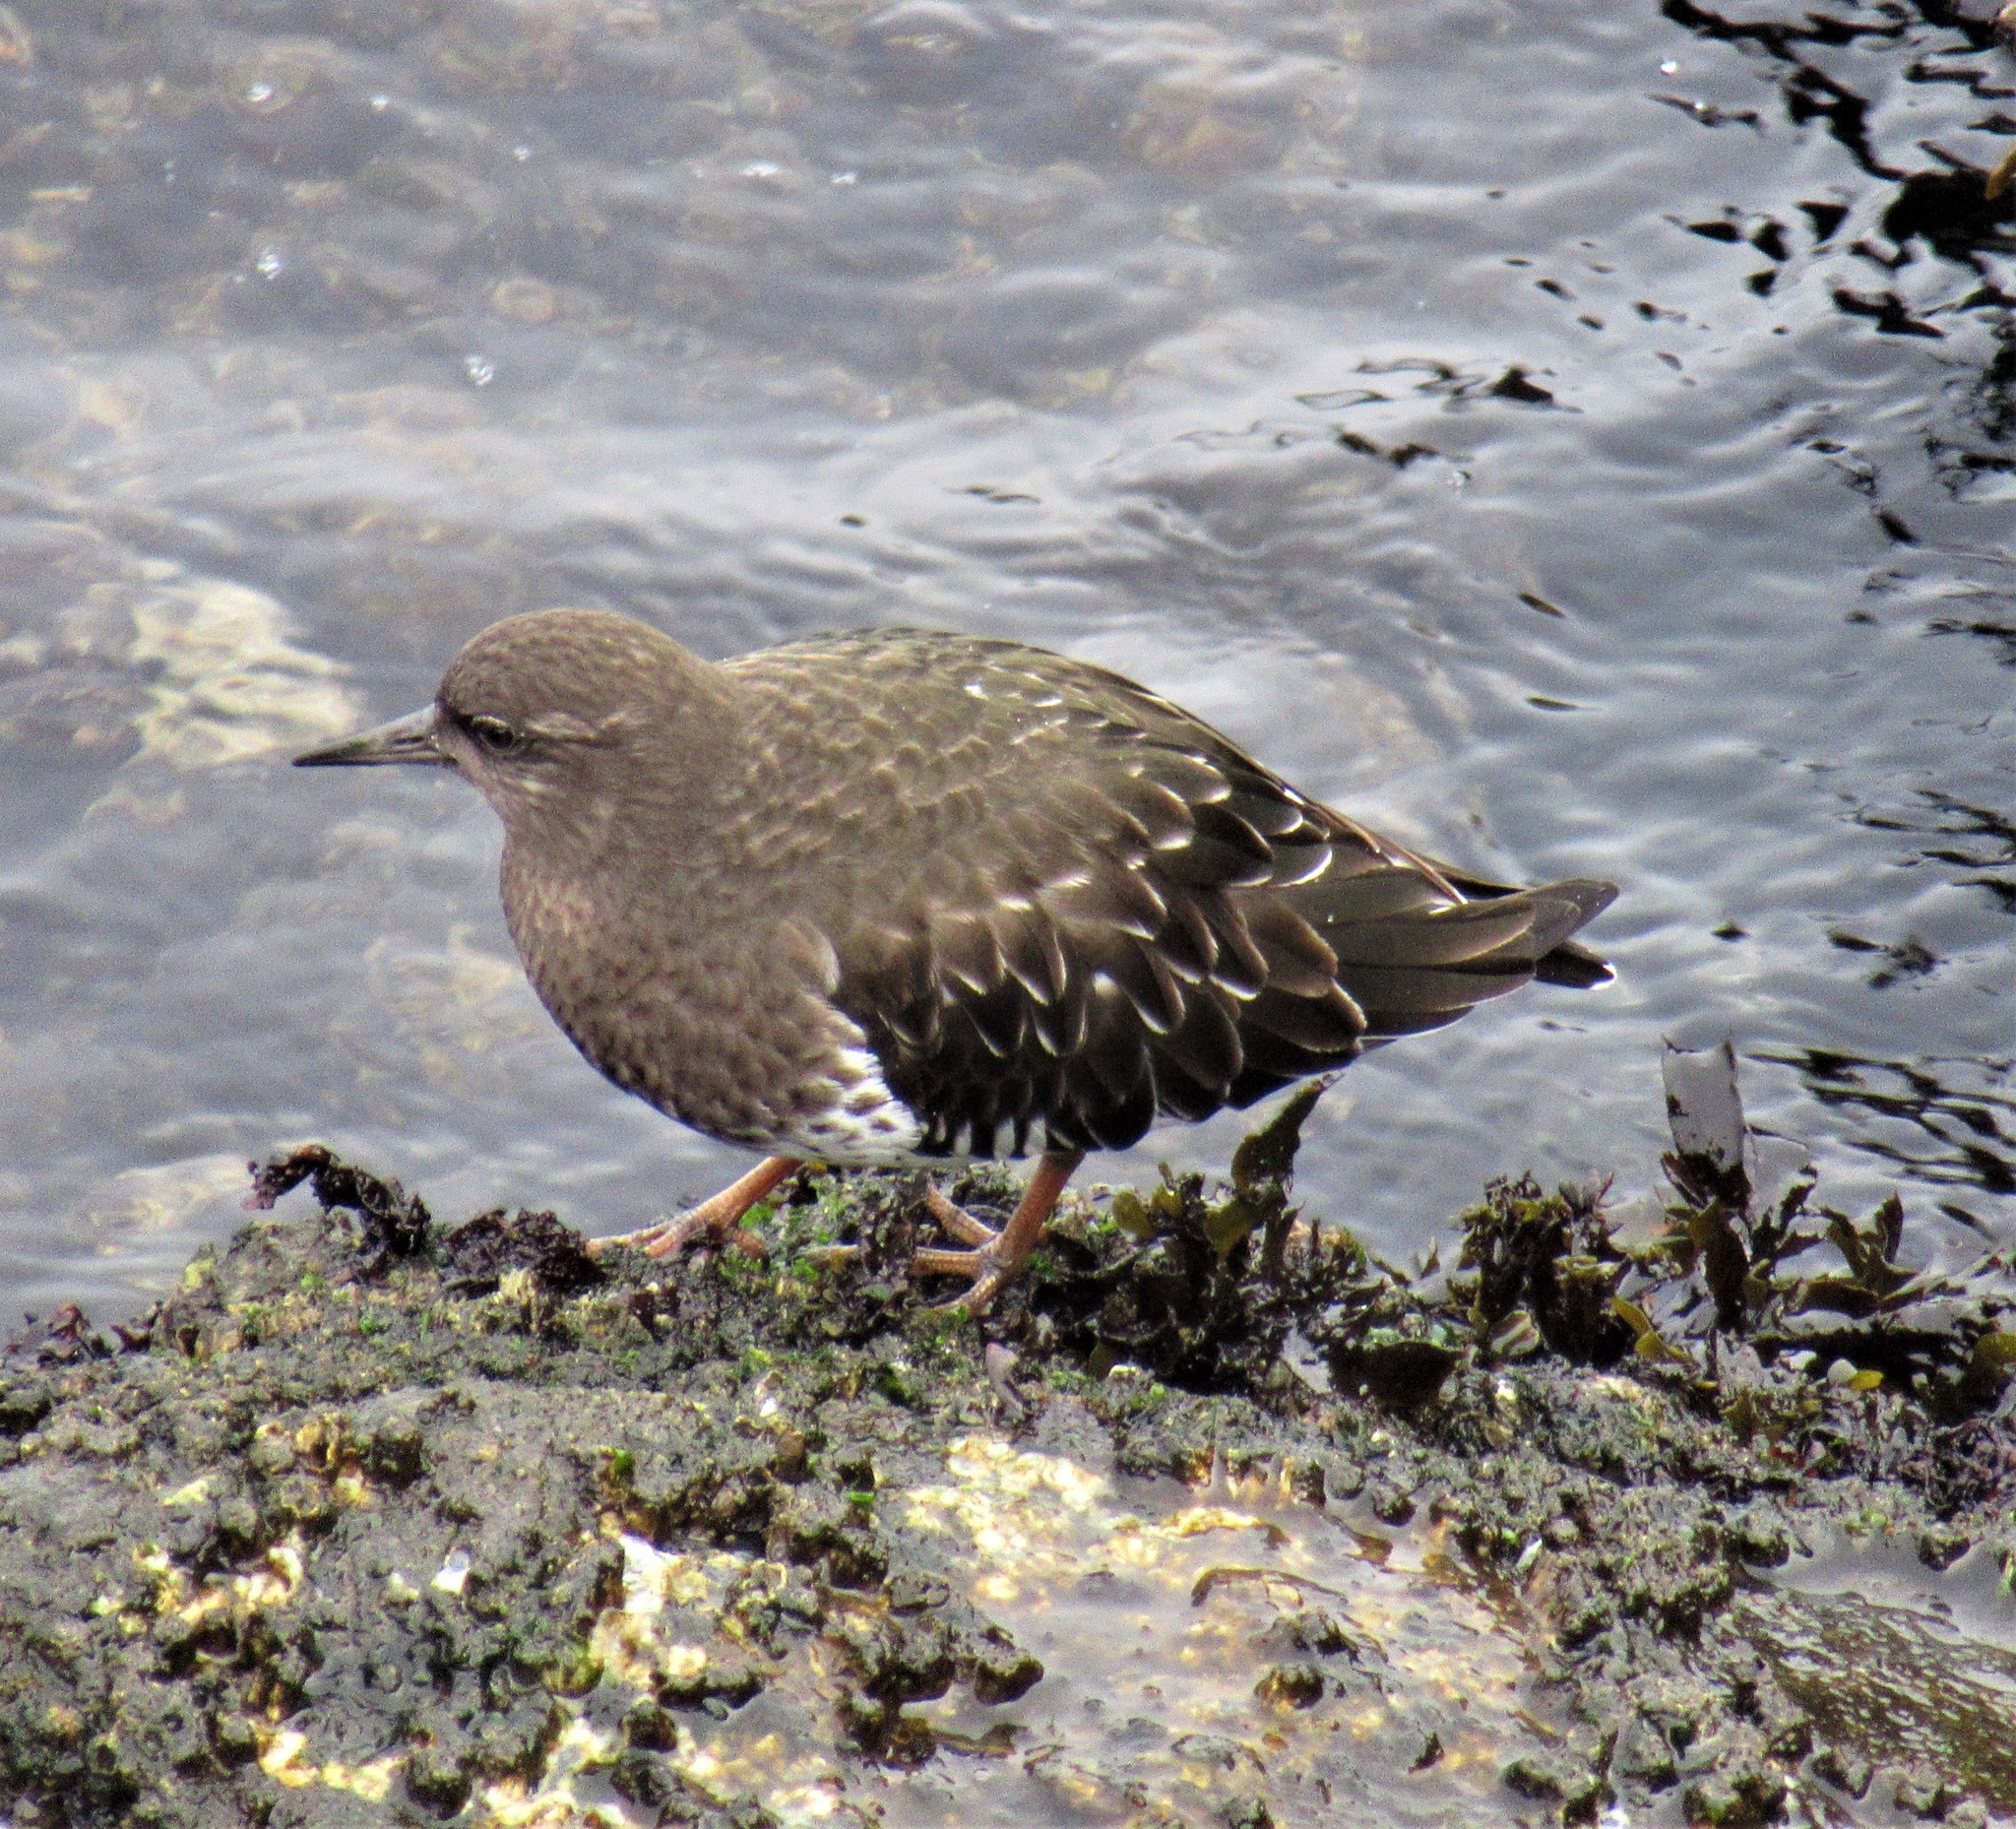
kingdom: Animalia
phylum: Chordata
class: Aves
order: Charadriiformes
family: Scolopacidae
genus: Arenaria
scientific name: Arenaria melanocephala
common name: Black turnstone
